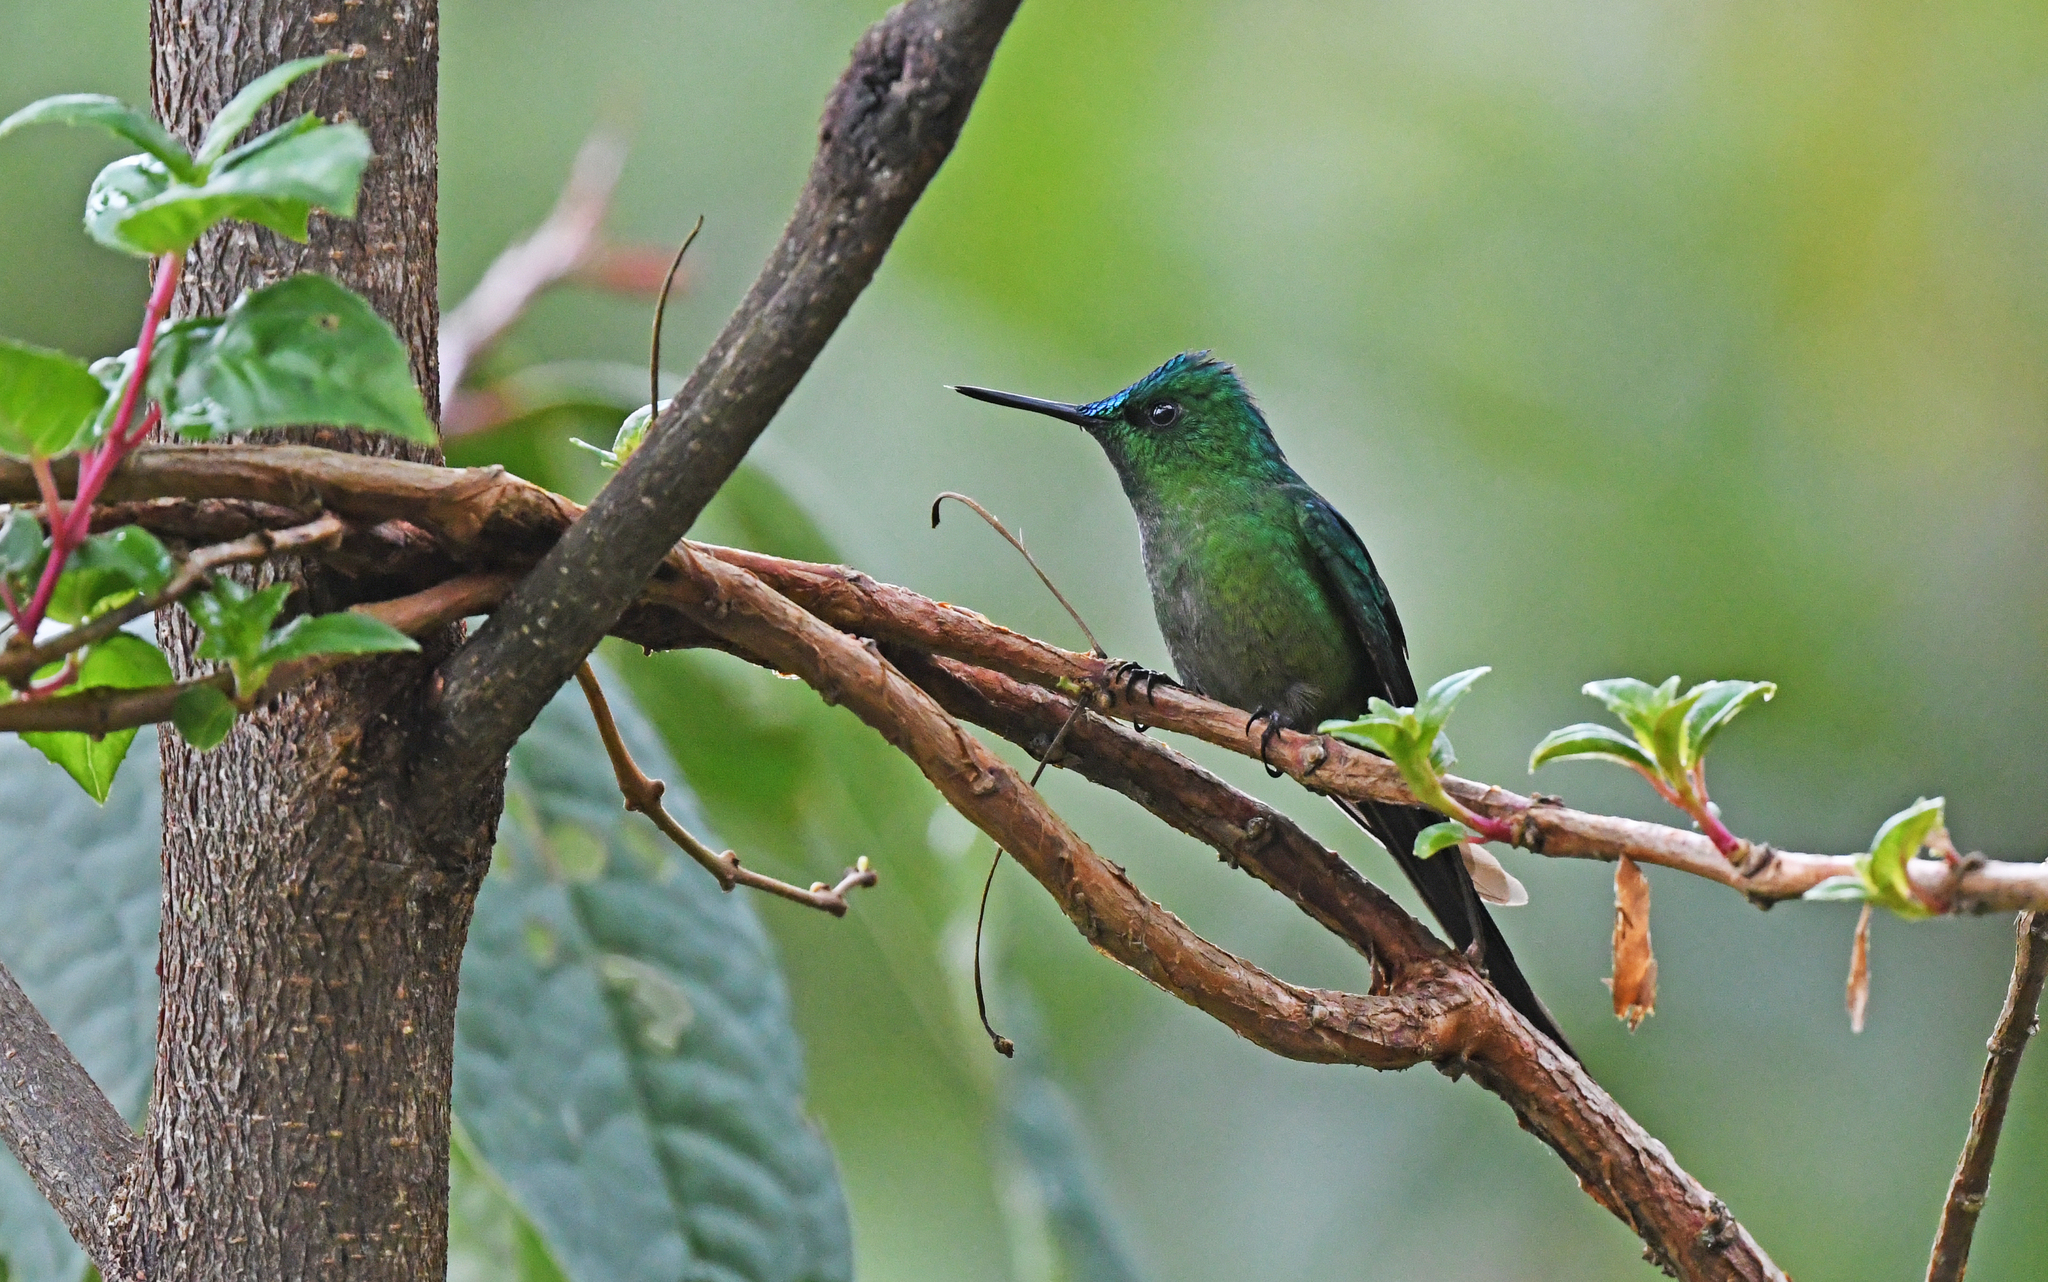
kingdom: Animalia
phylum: Chordata
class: Aves
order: Apodiformes
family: Trochilidae
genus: Aglaiocercus
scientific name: Aglaiocercus kingii
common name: Long-tailed sylph
